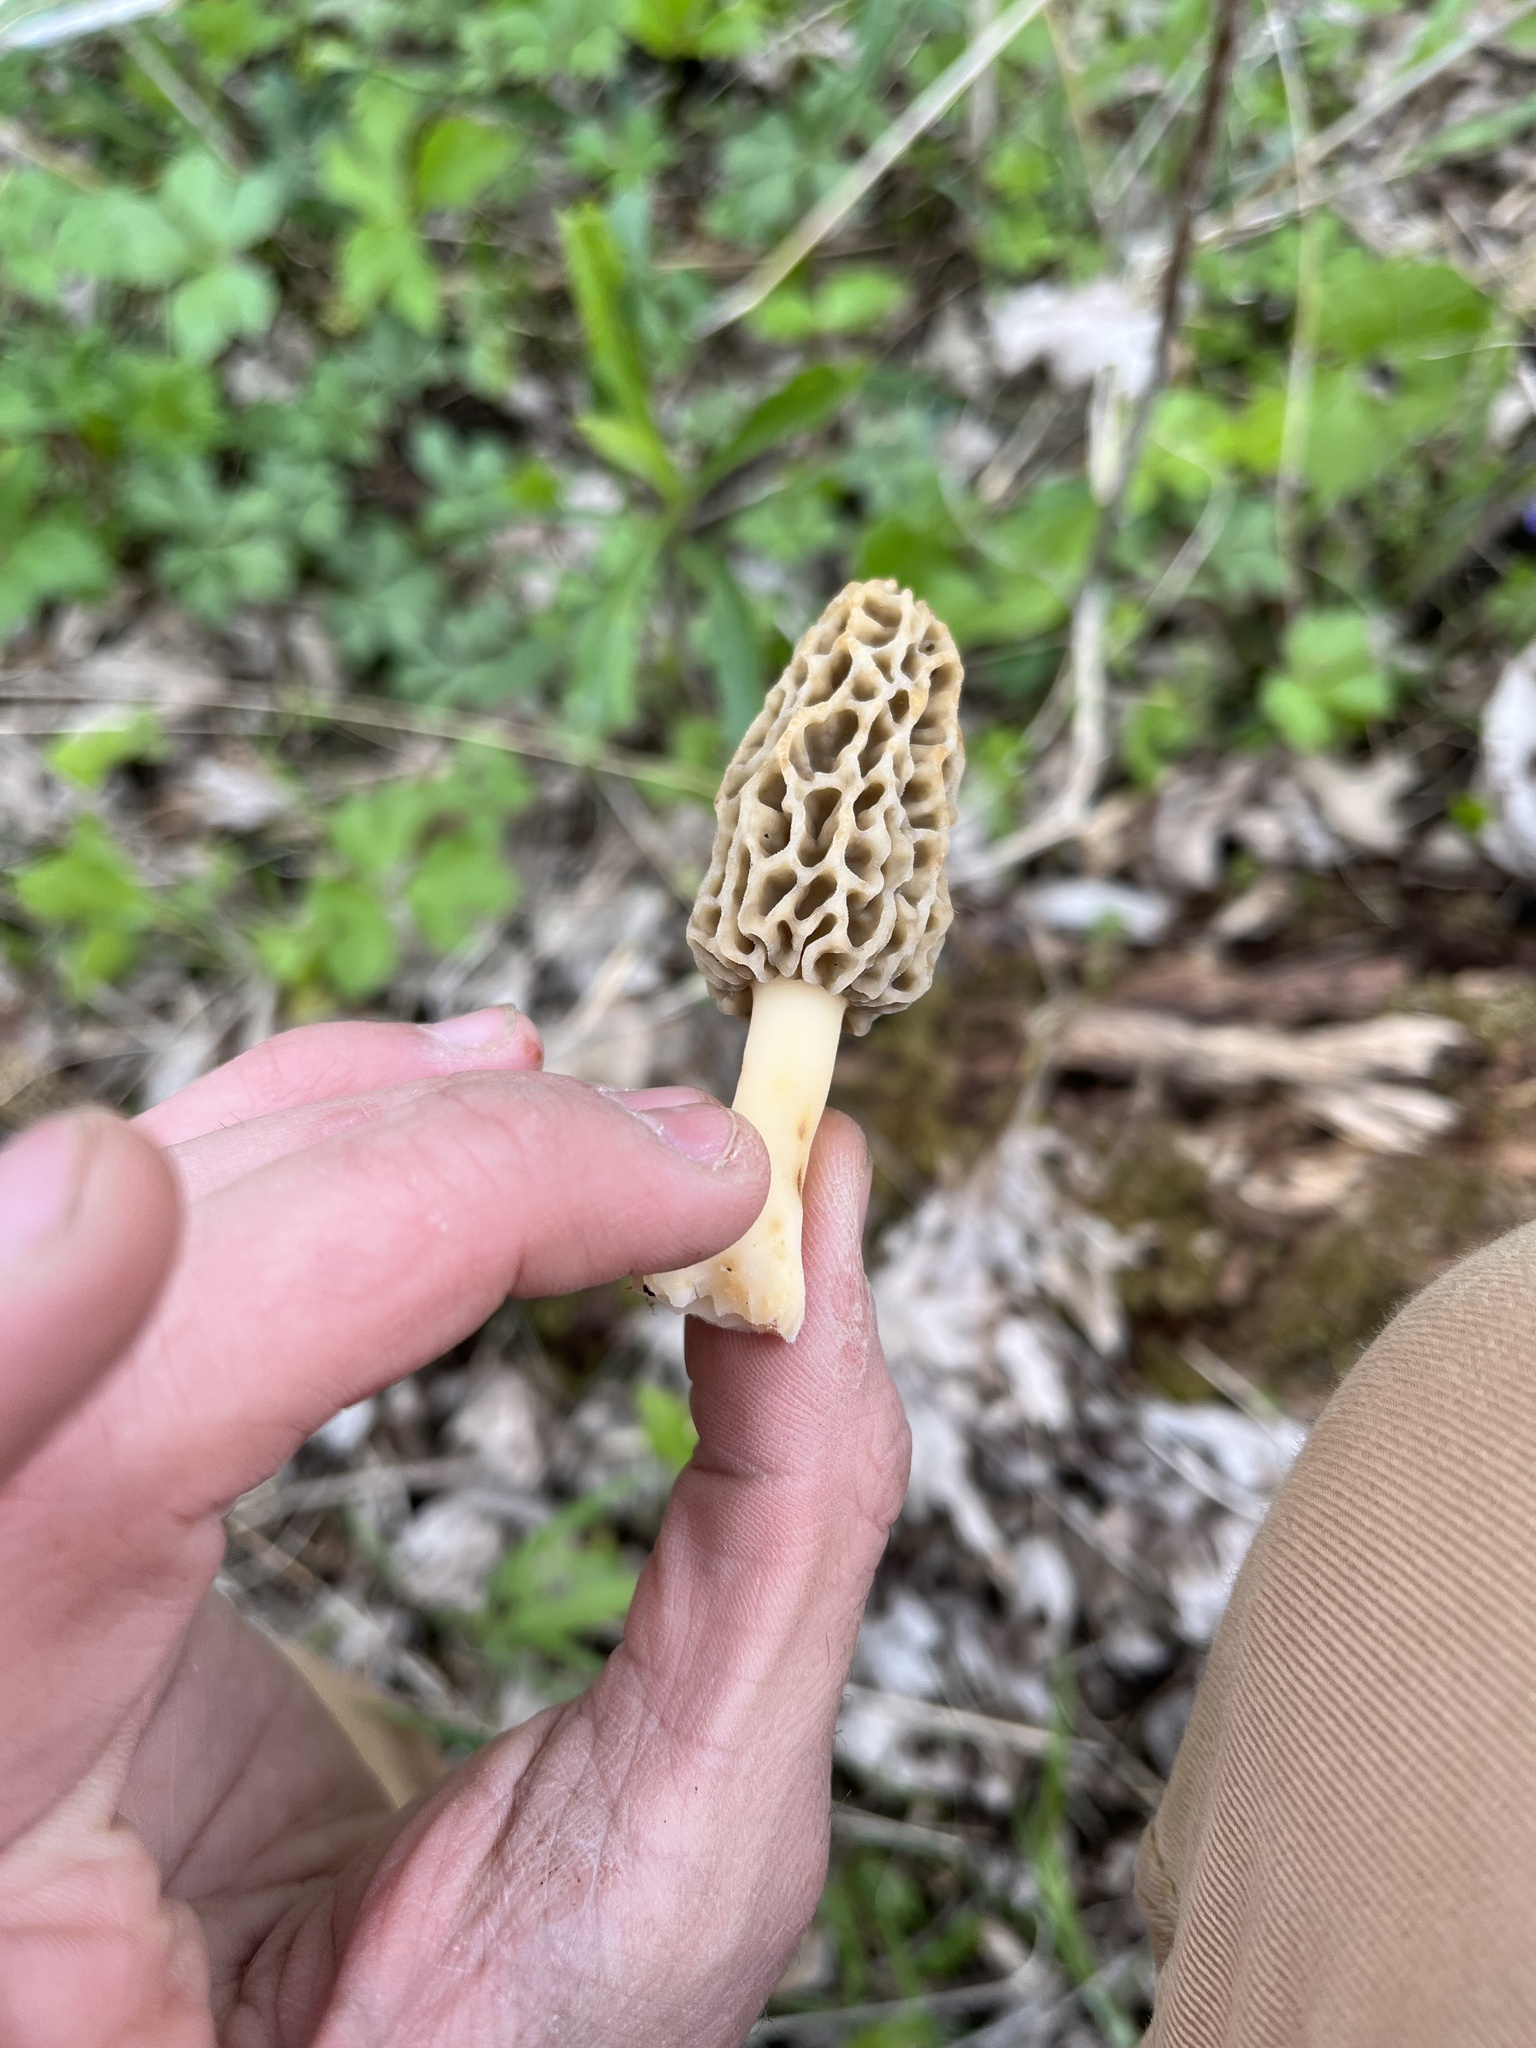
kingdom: Fungi
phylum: Ascomycota
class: Pezizomycetes
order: Pezizales
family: Morchellaceae
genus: Morchella
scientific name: Morchella americana
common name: White morel
